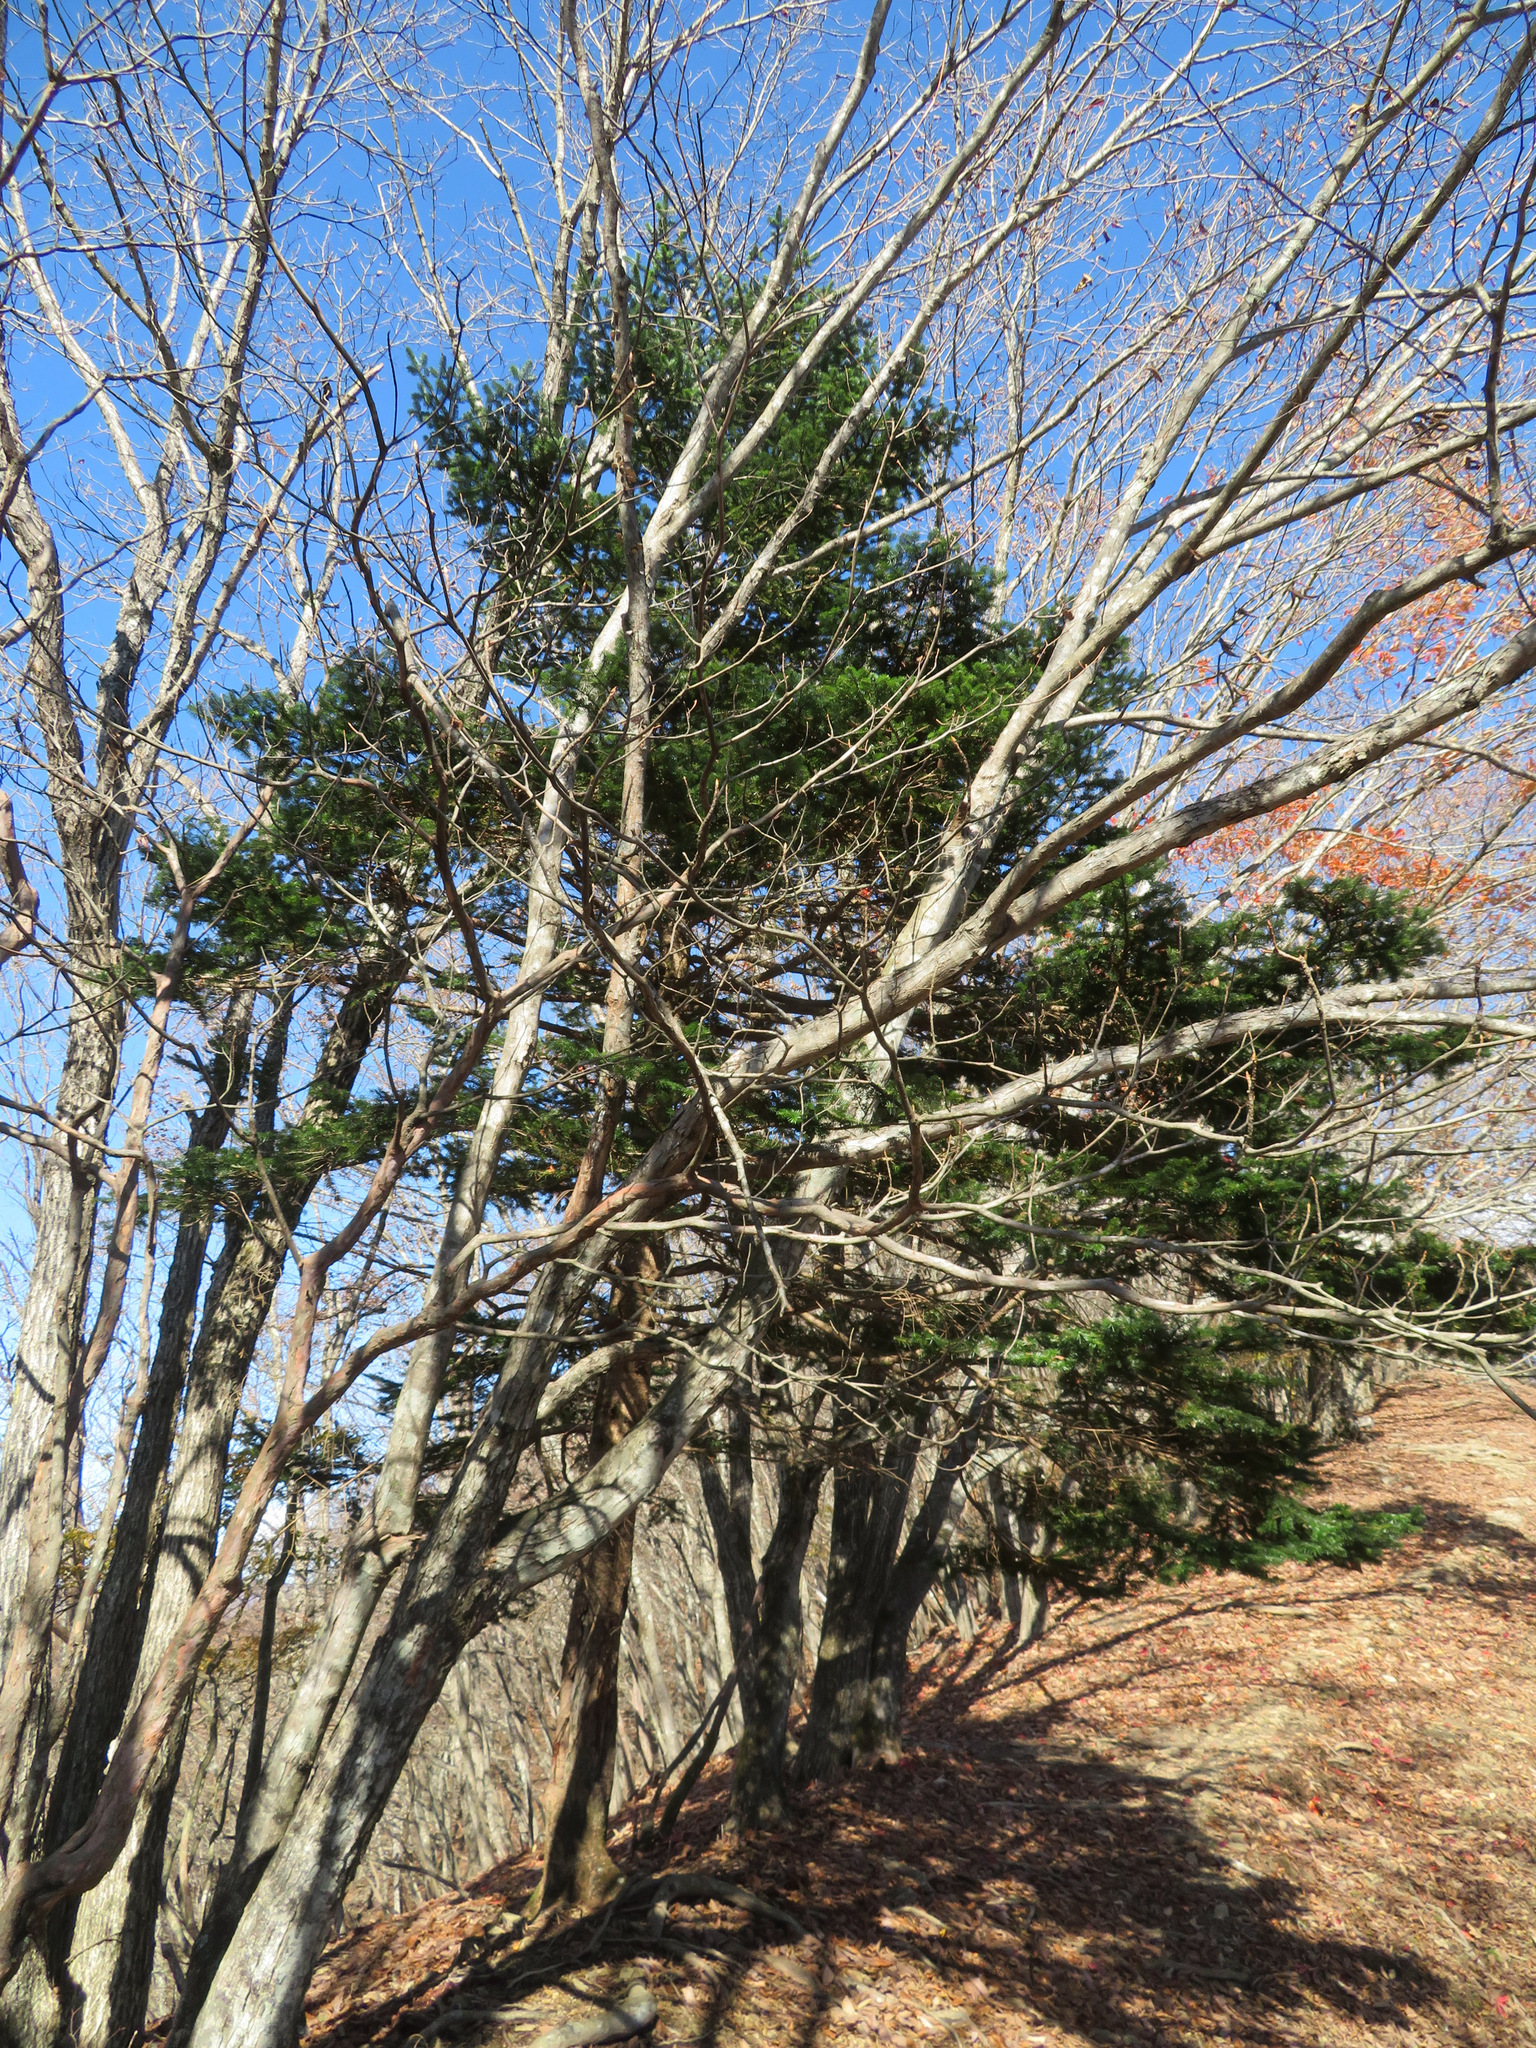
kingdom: Plantae
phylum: Tracheophyta
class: Pinopsida
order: Pinales
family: Pinaceae
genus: Abies
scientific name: Abies homolepis
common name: Nikko fir
